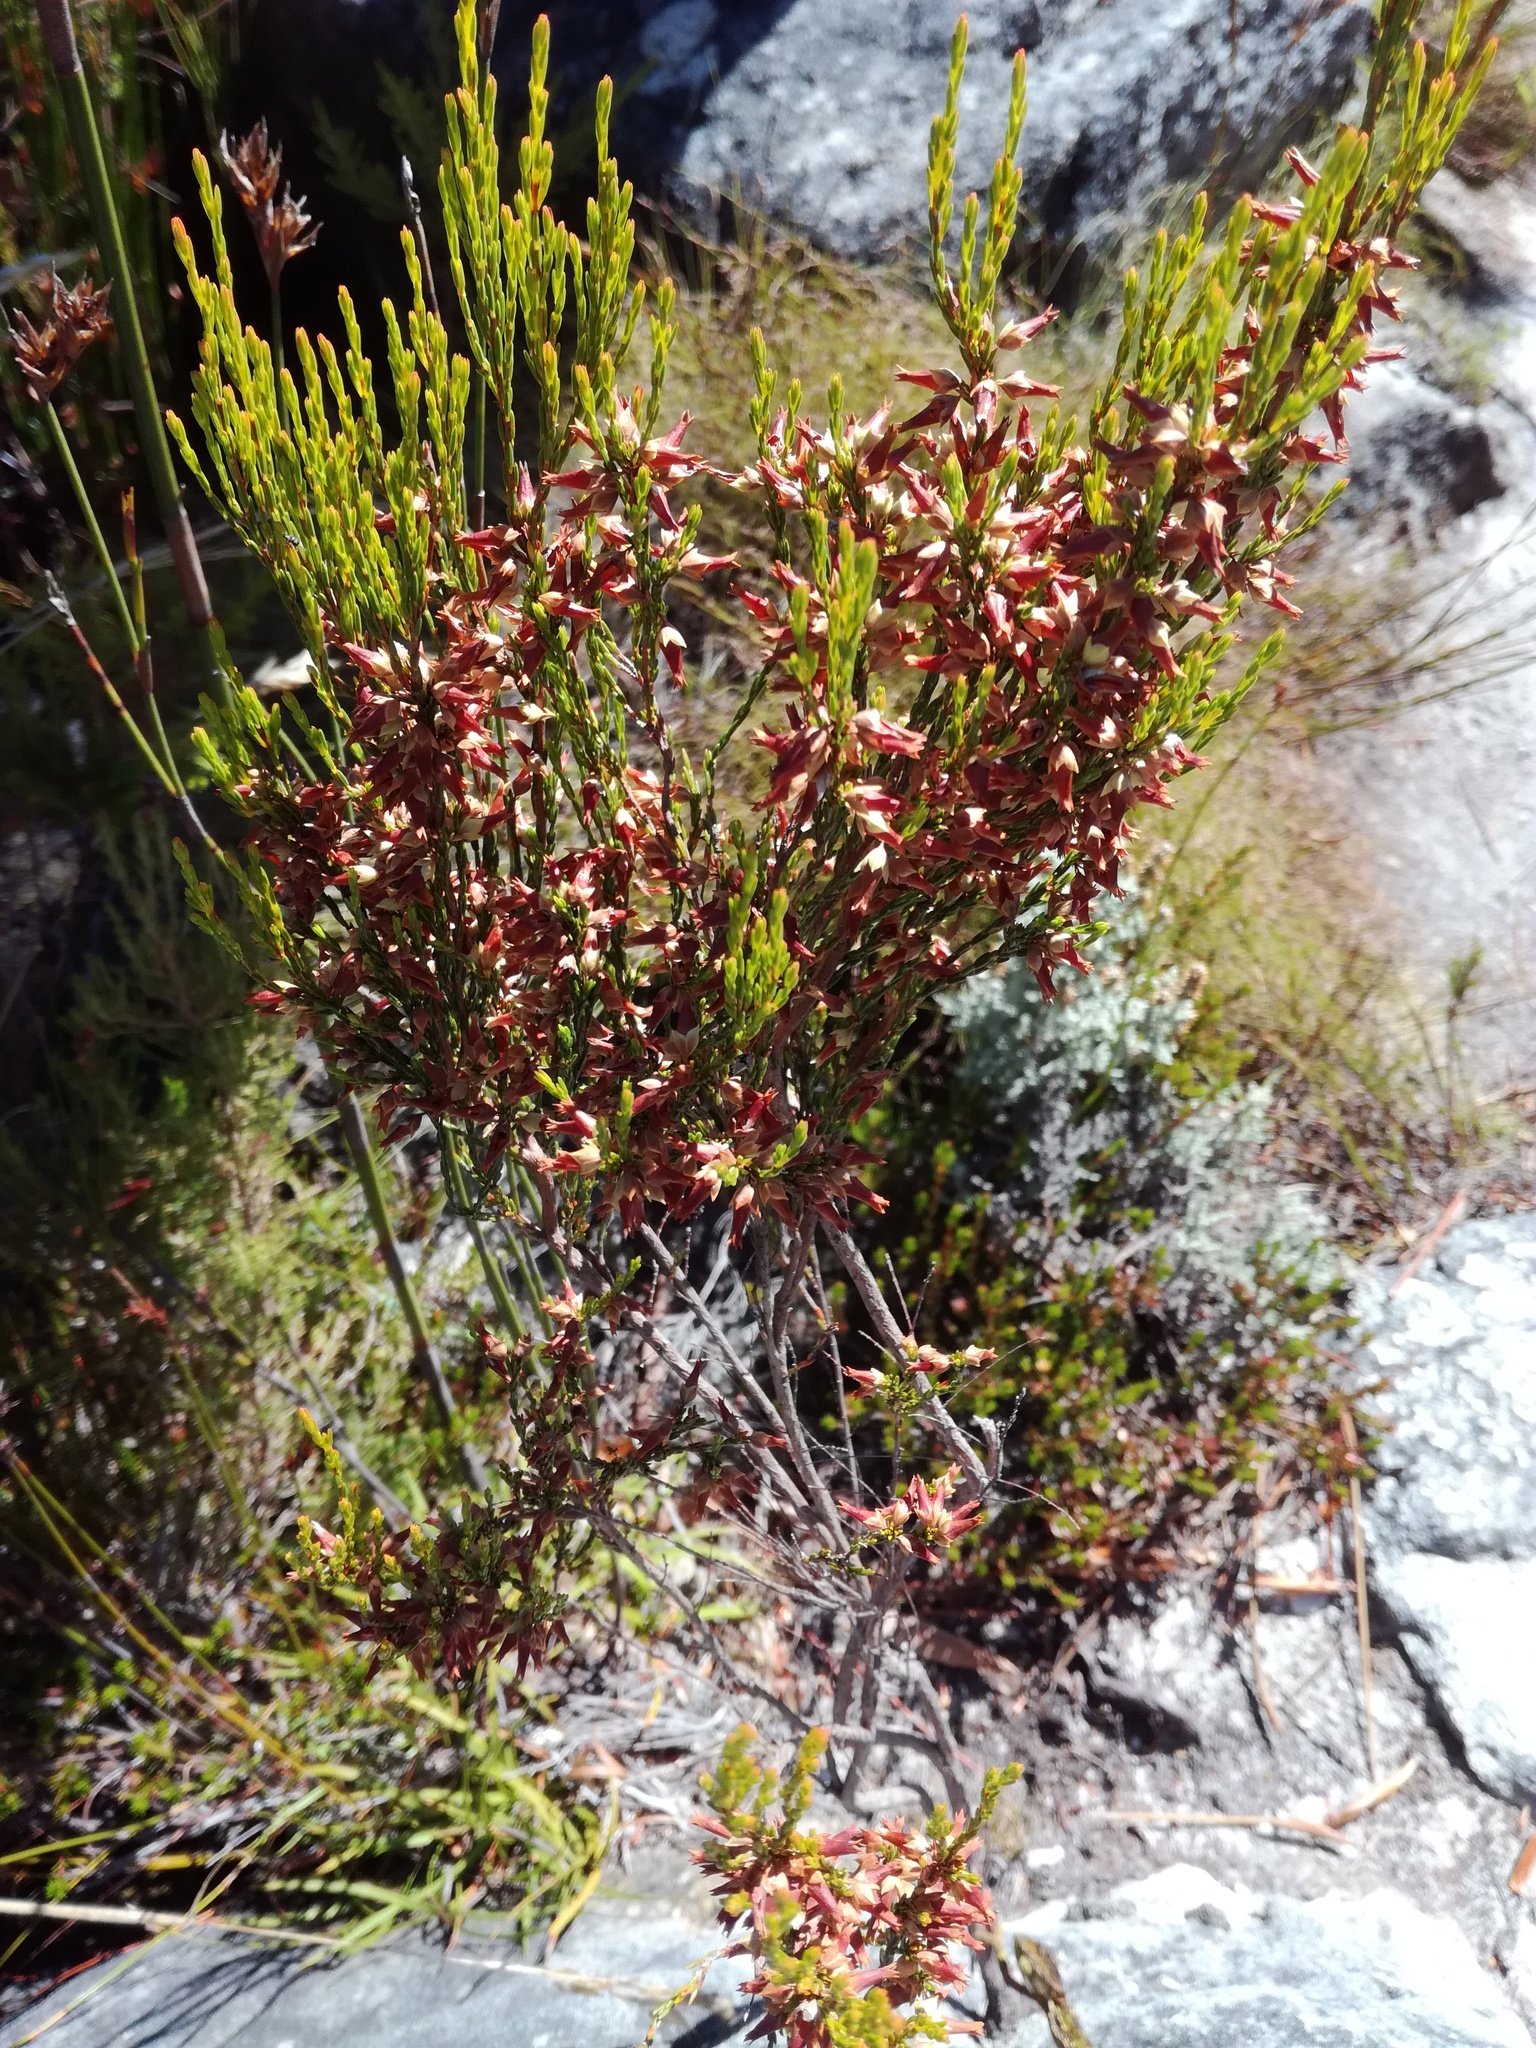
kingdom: Plantae
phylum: Tracheophyta
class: Magnoliopsida
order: Ericales
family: Ericaceae
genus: Erica
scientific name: Erica lutea
